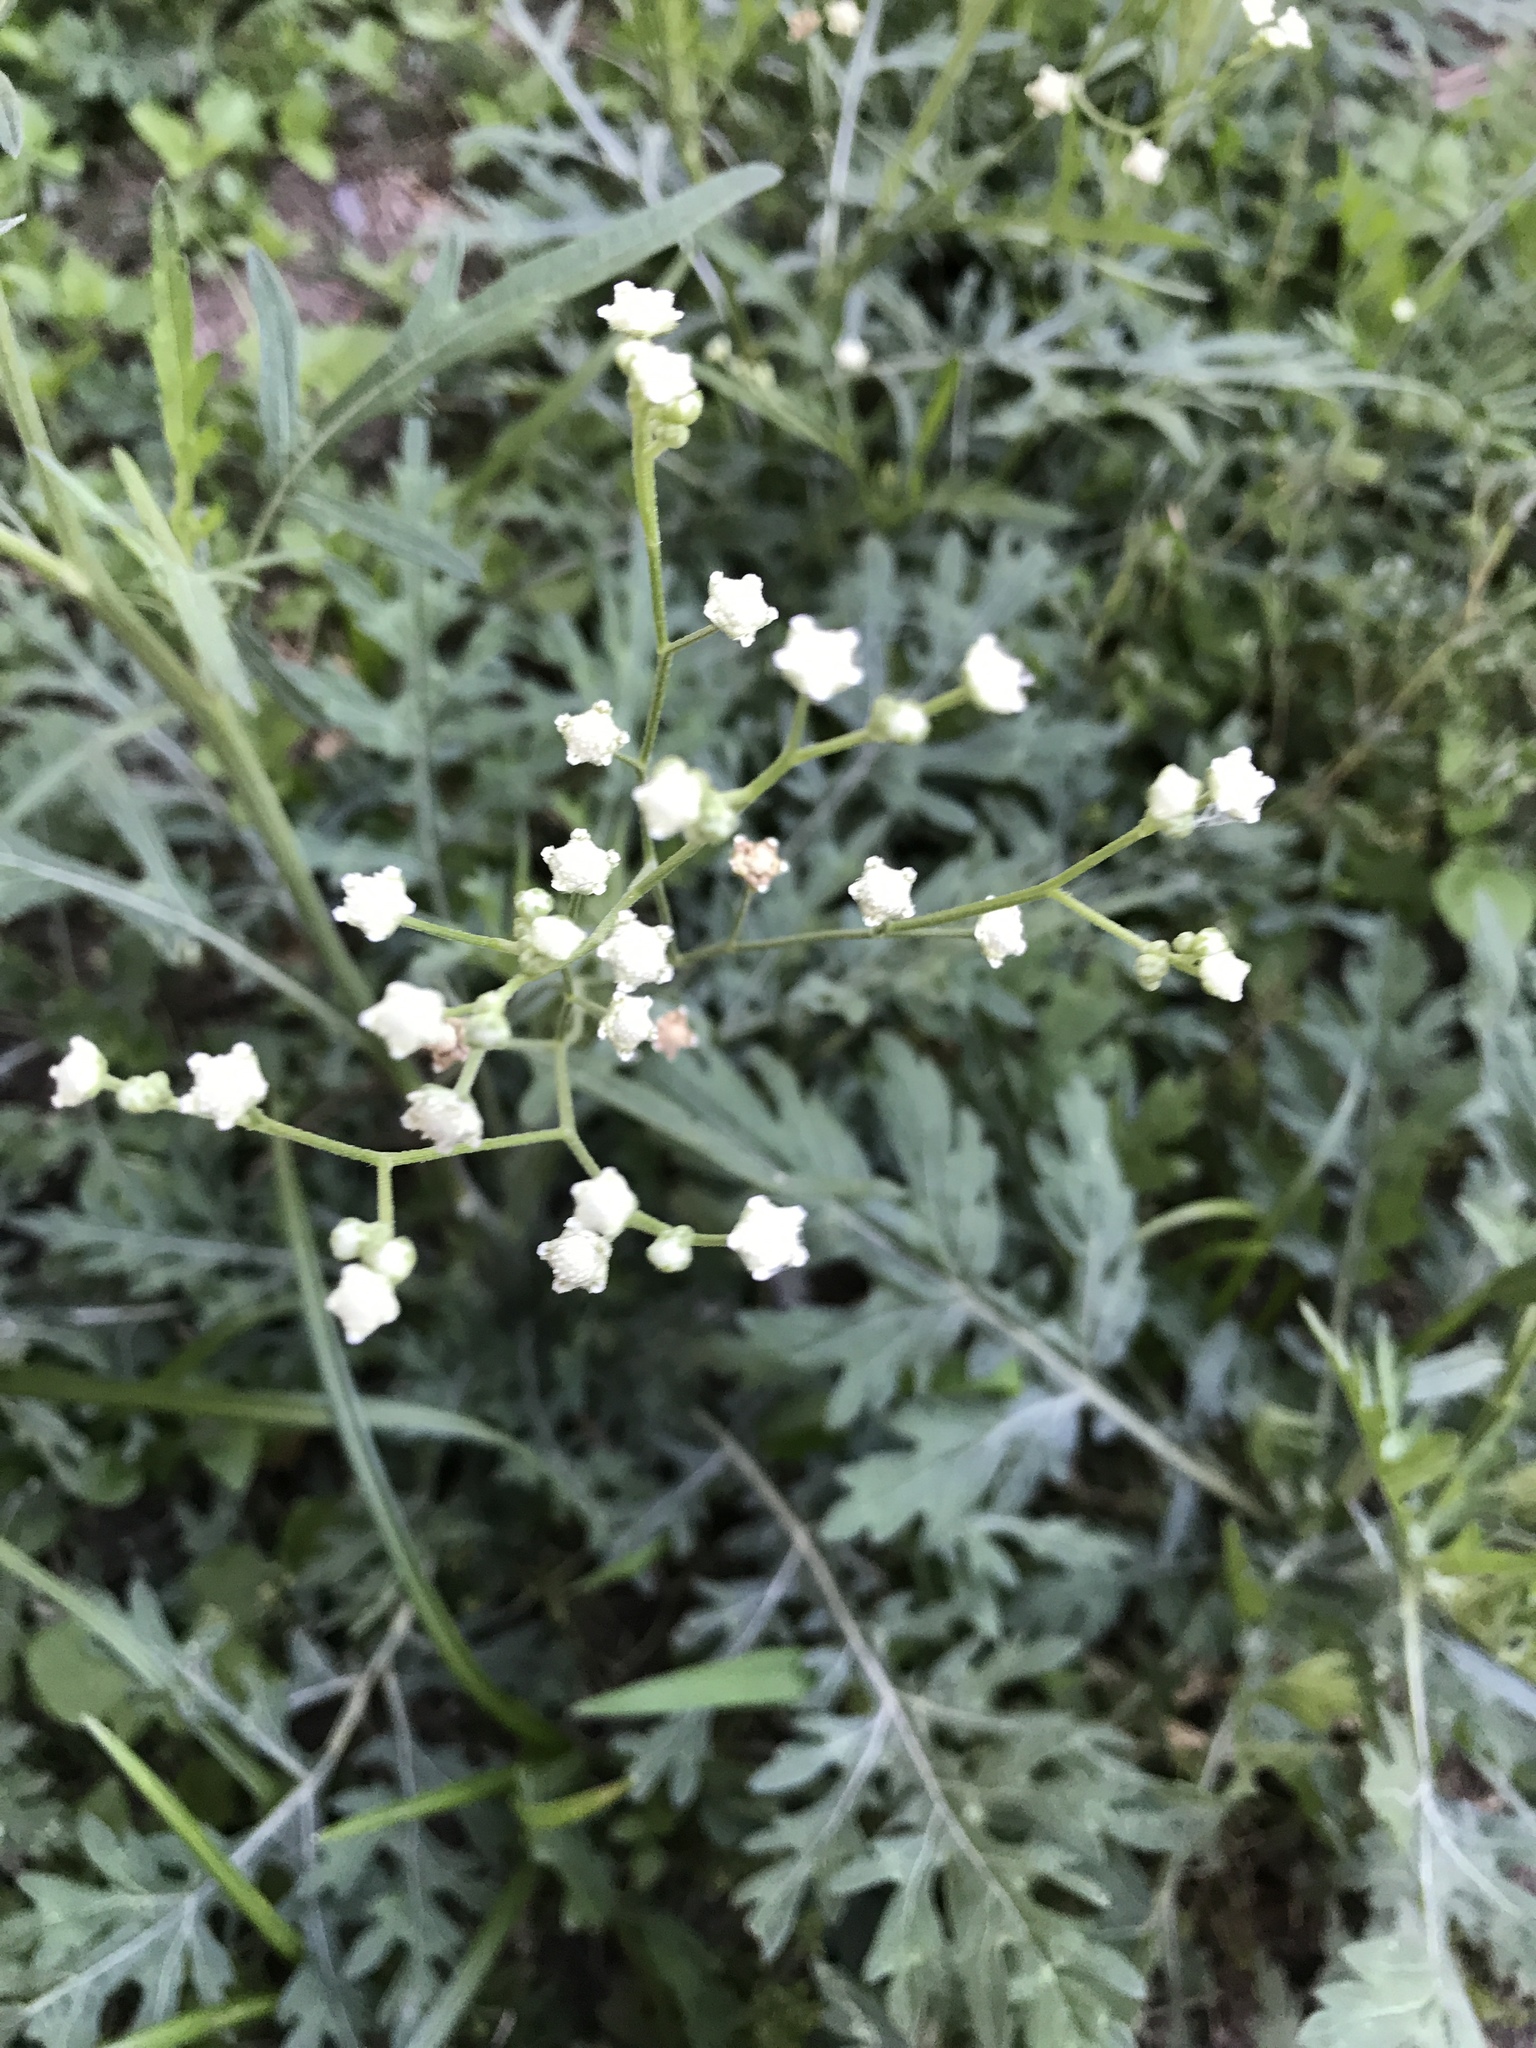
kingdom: Plantae
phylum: Tracheophyta
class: Magnoliopsida
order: Asterales
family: Asteraceae
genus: Parthenium
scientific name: Parthenium hysterophorus
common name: Santa maria feverfew
